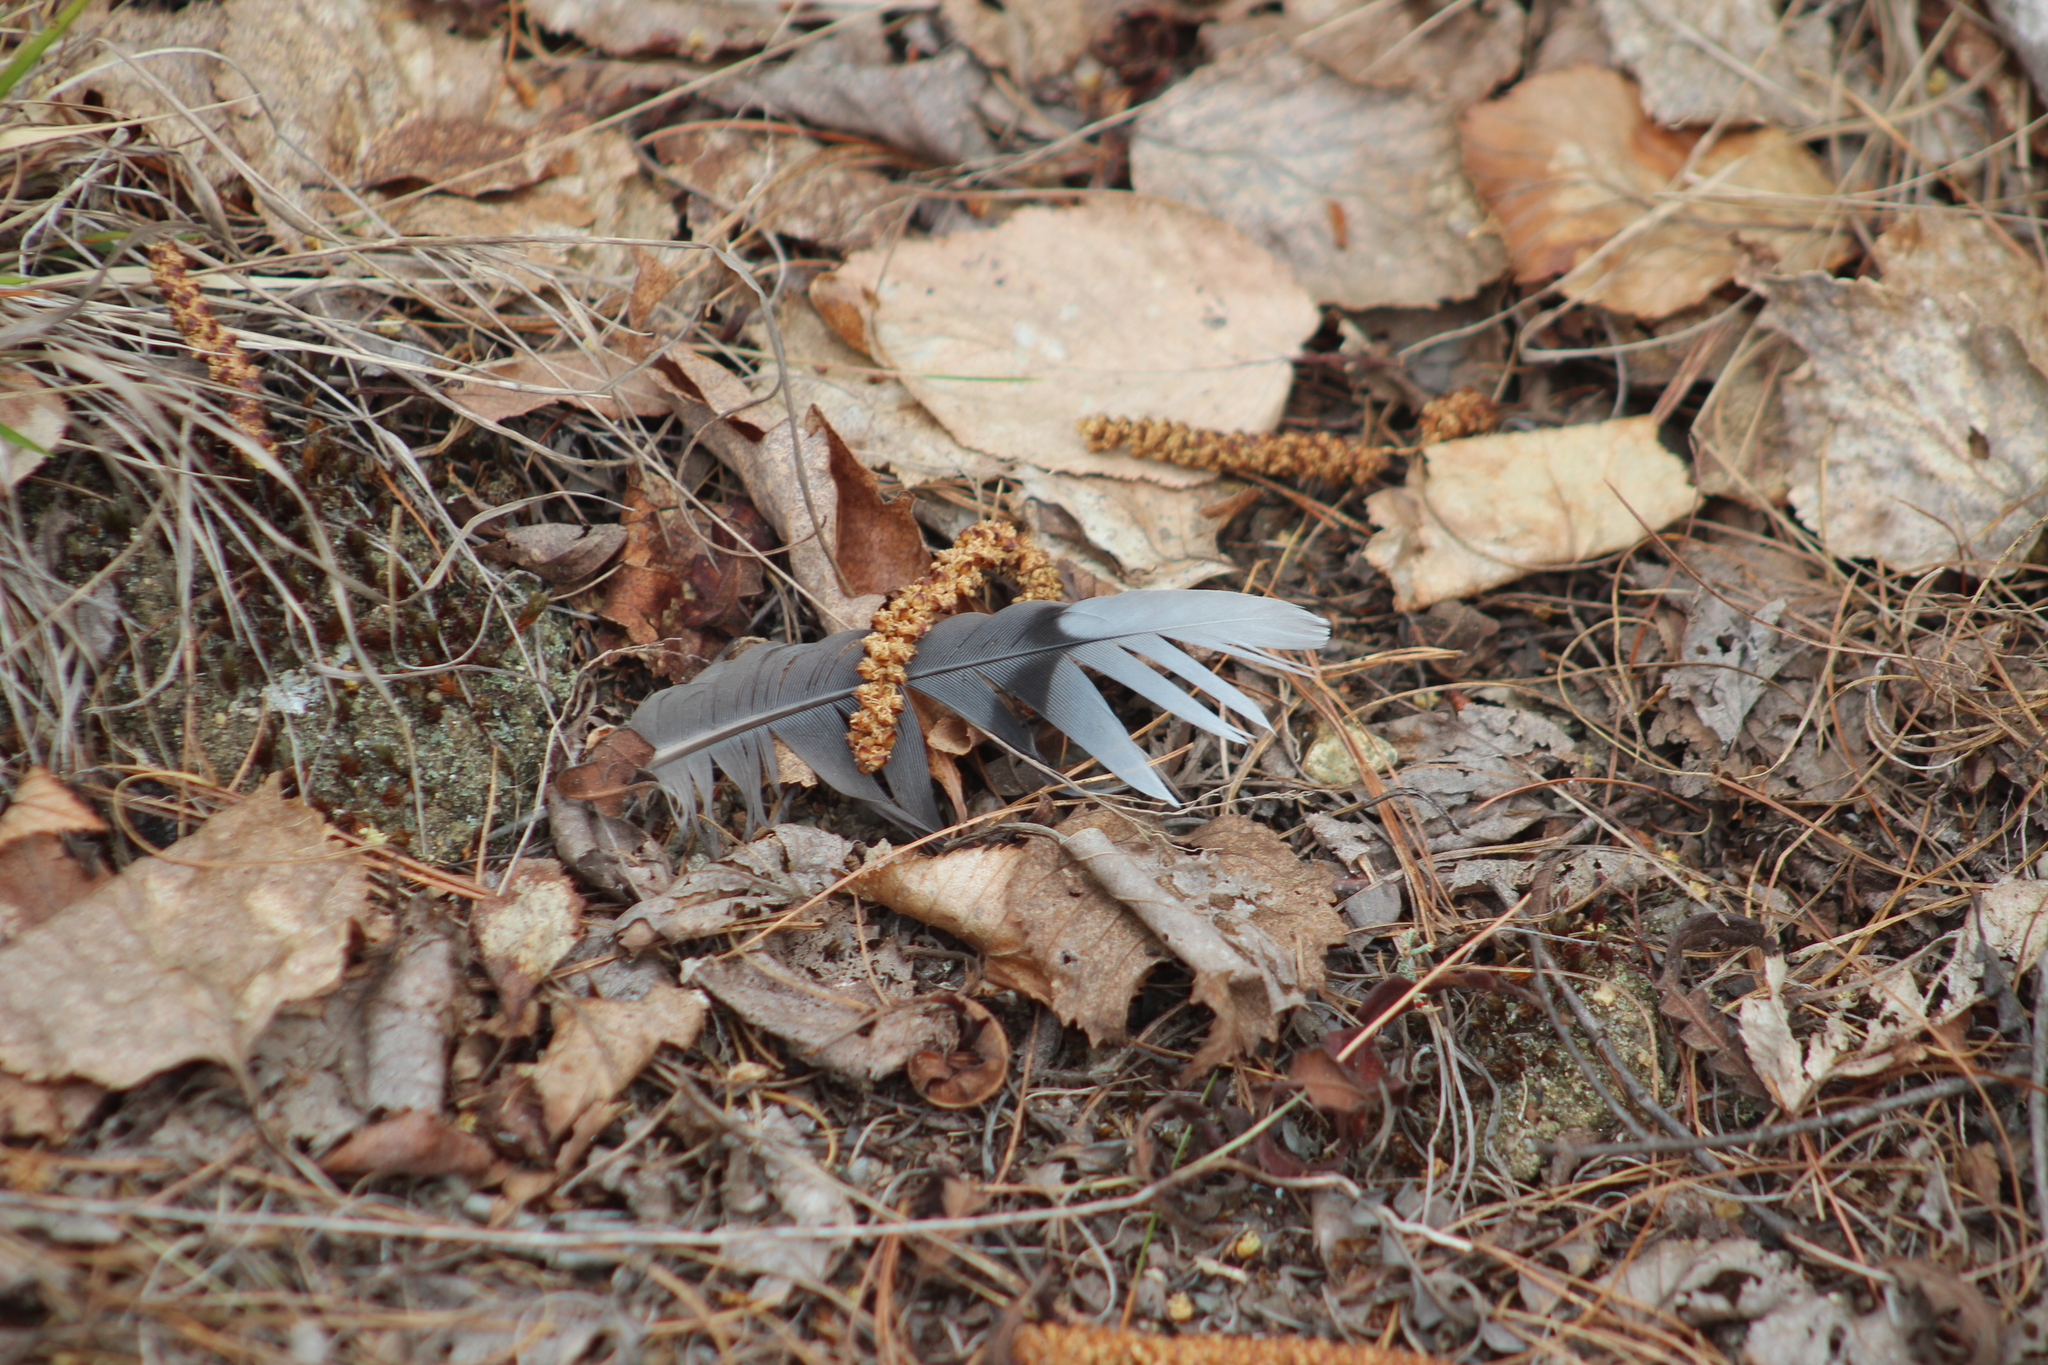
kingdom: Animalia
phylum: Chordata
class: Aves
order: Columbiformes
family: Columbidae
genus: Zenaida
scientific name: Zenaida macroura
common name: Mourning dove
